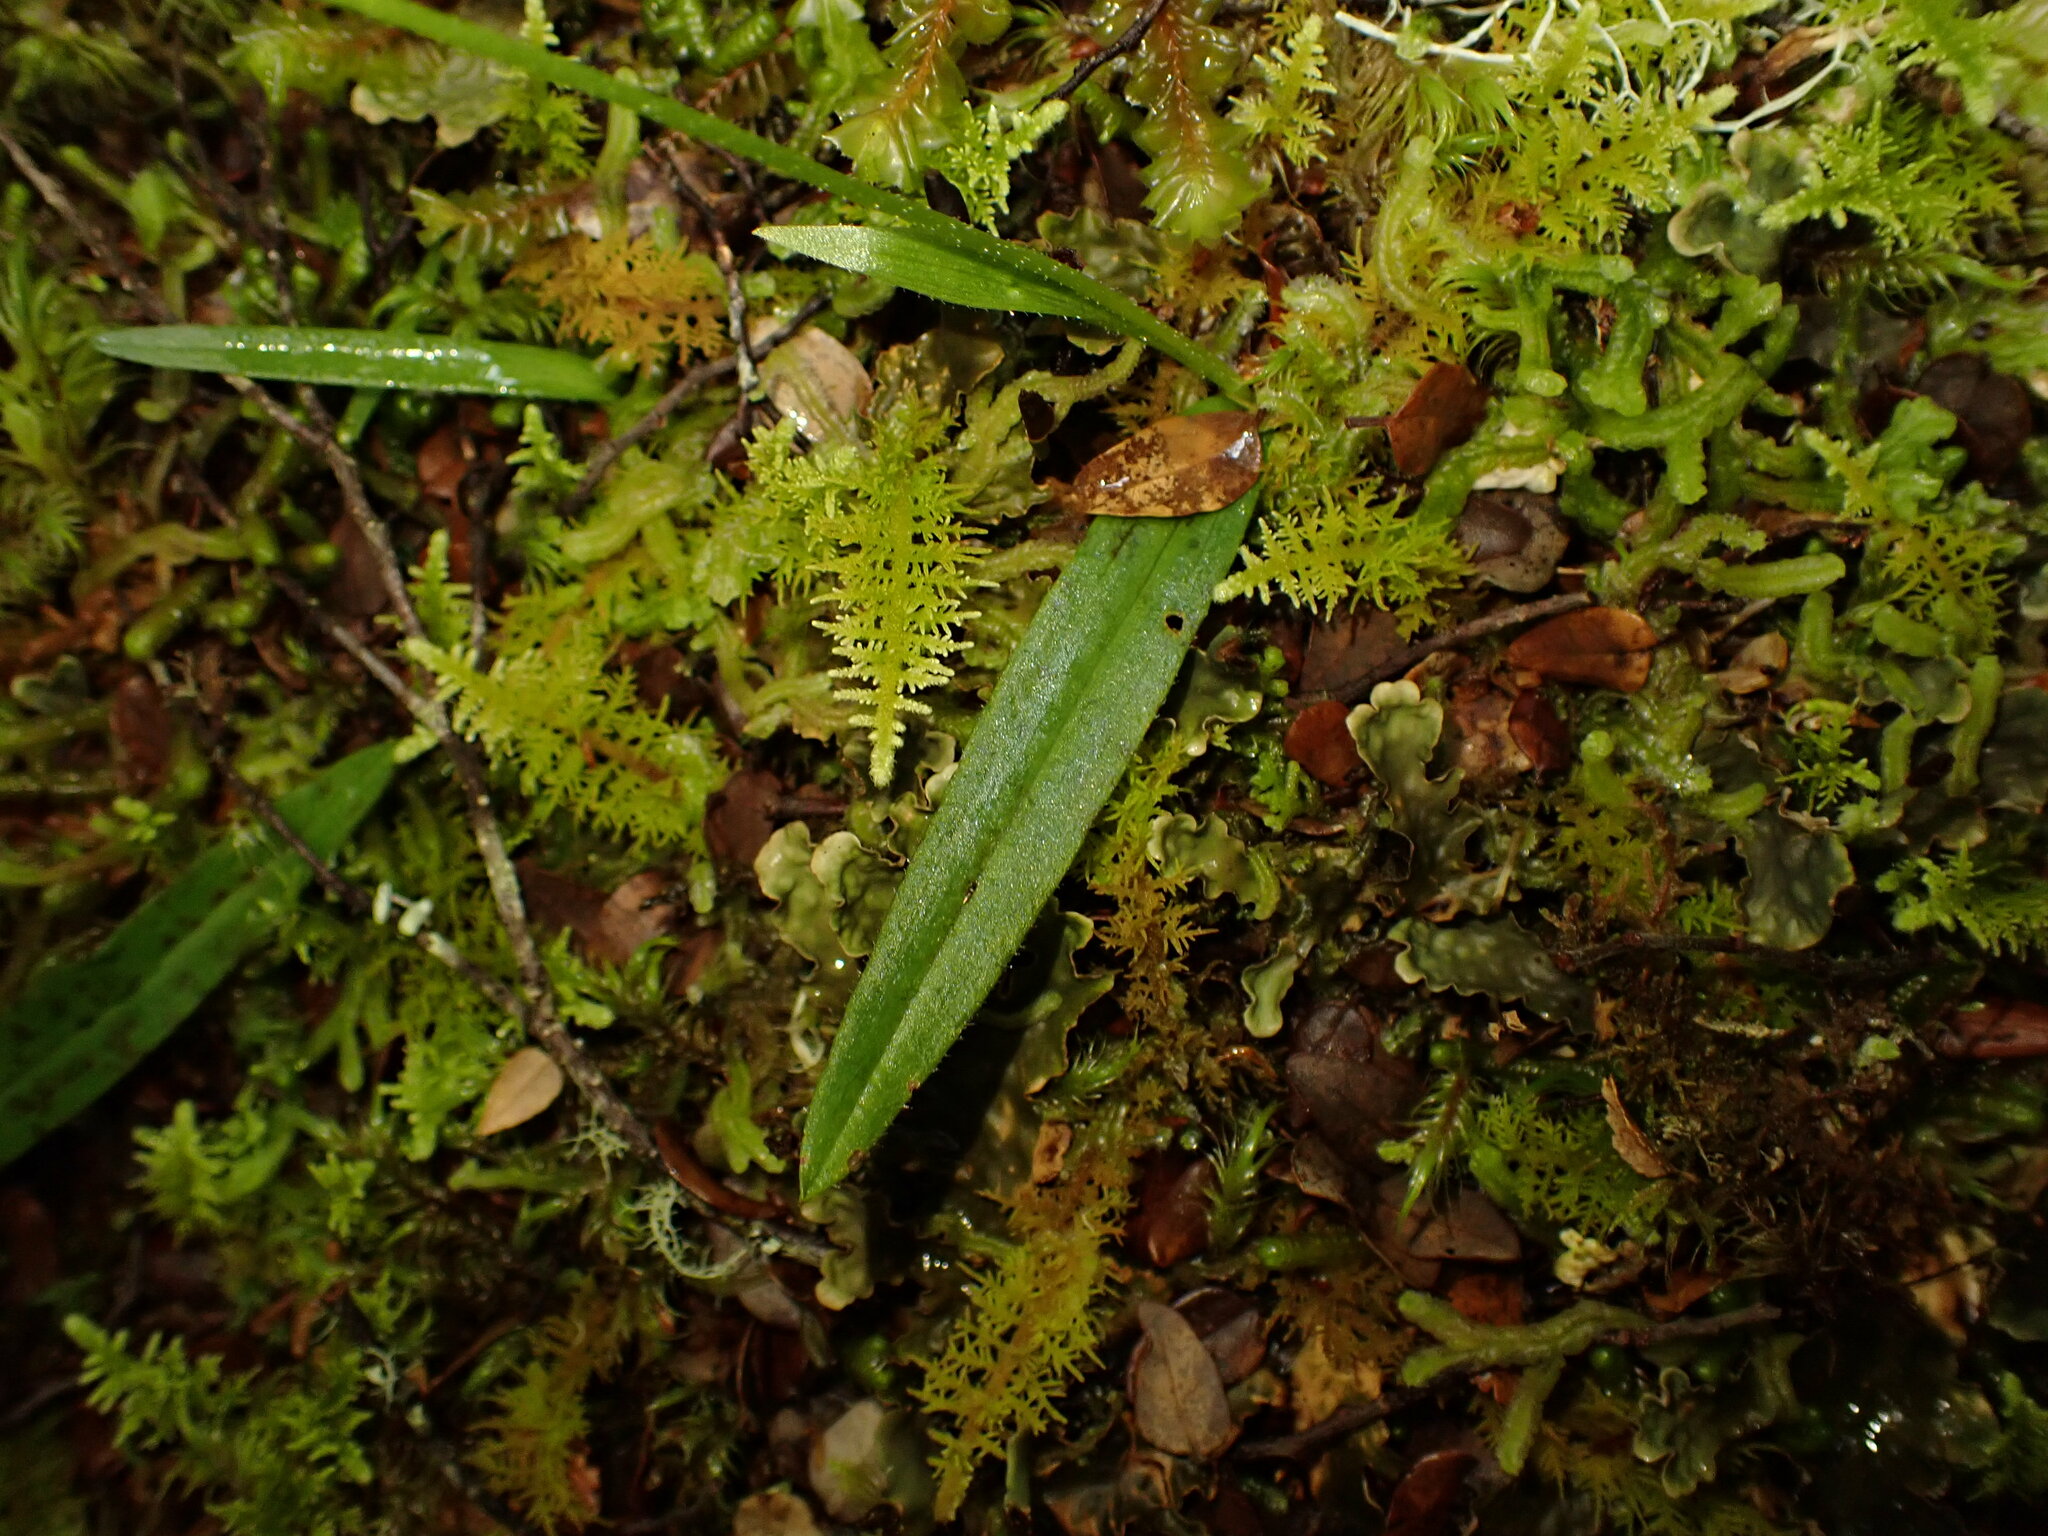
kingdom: Plantae
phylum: Tracheophyta
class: Liliopsida
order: Asparagales
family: Orchidaceae
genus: Aporostylis
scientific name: Aporostylis bifolia
